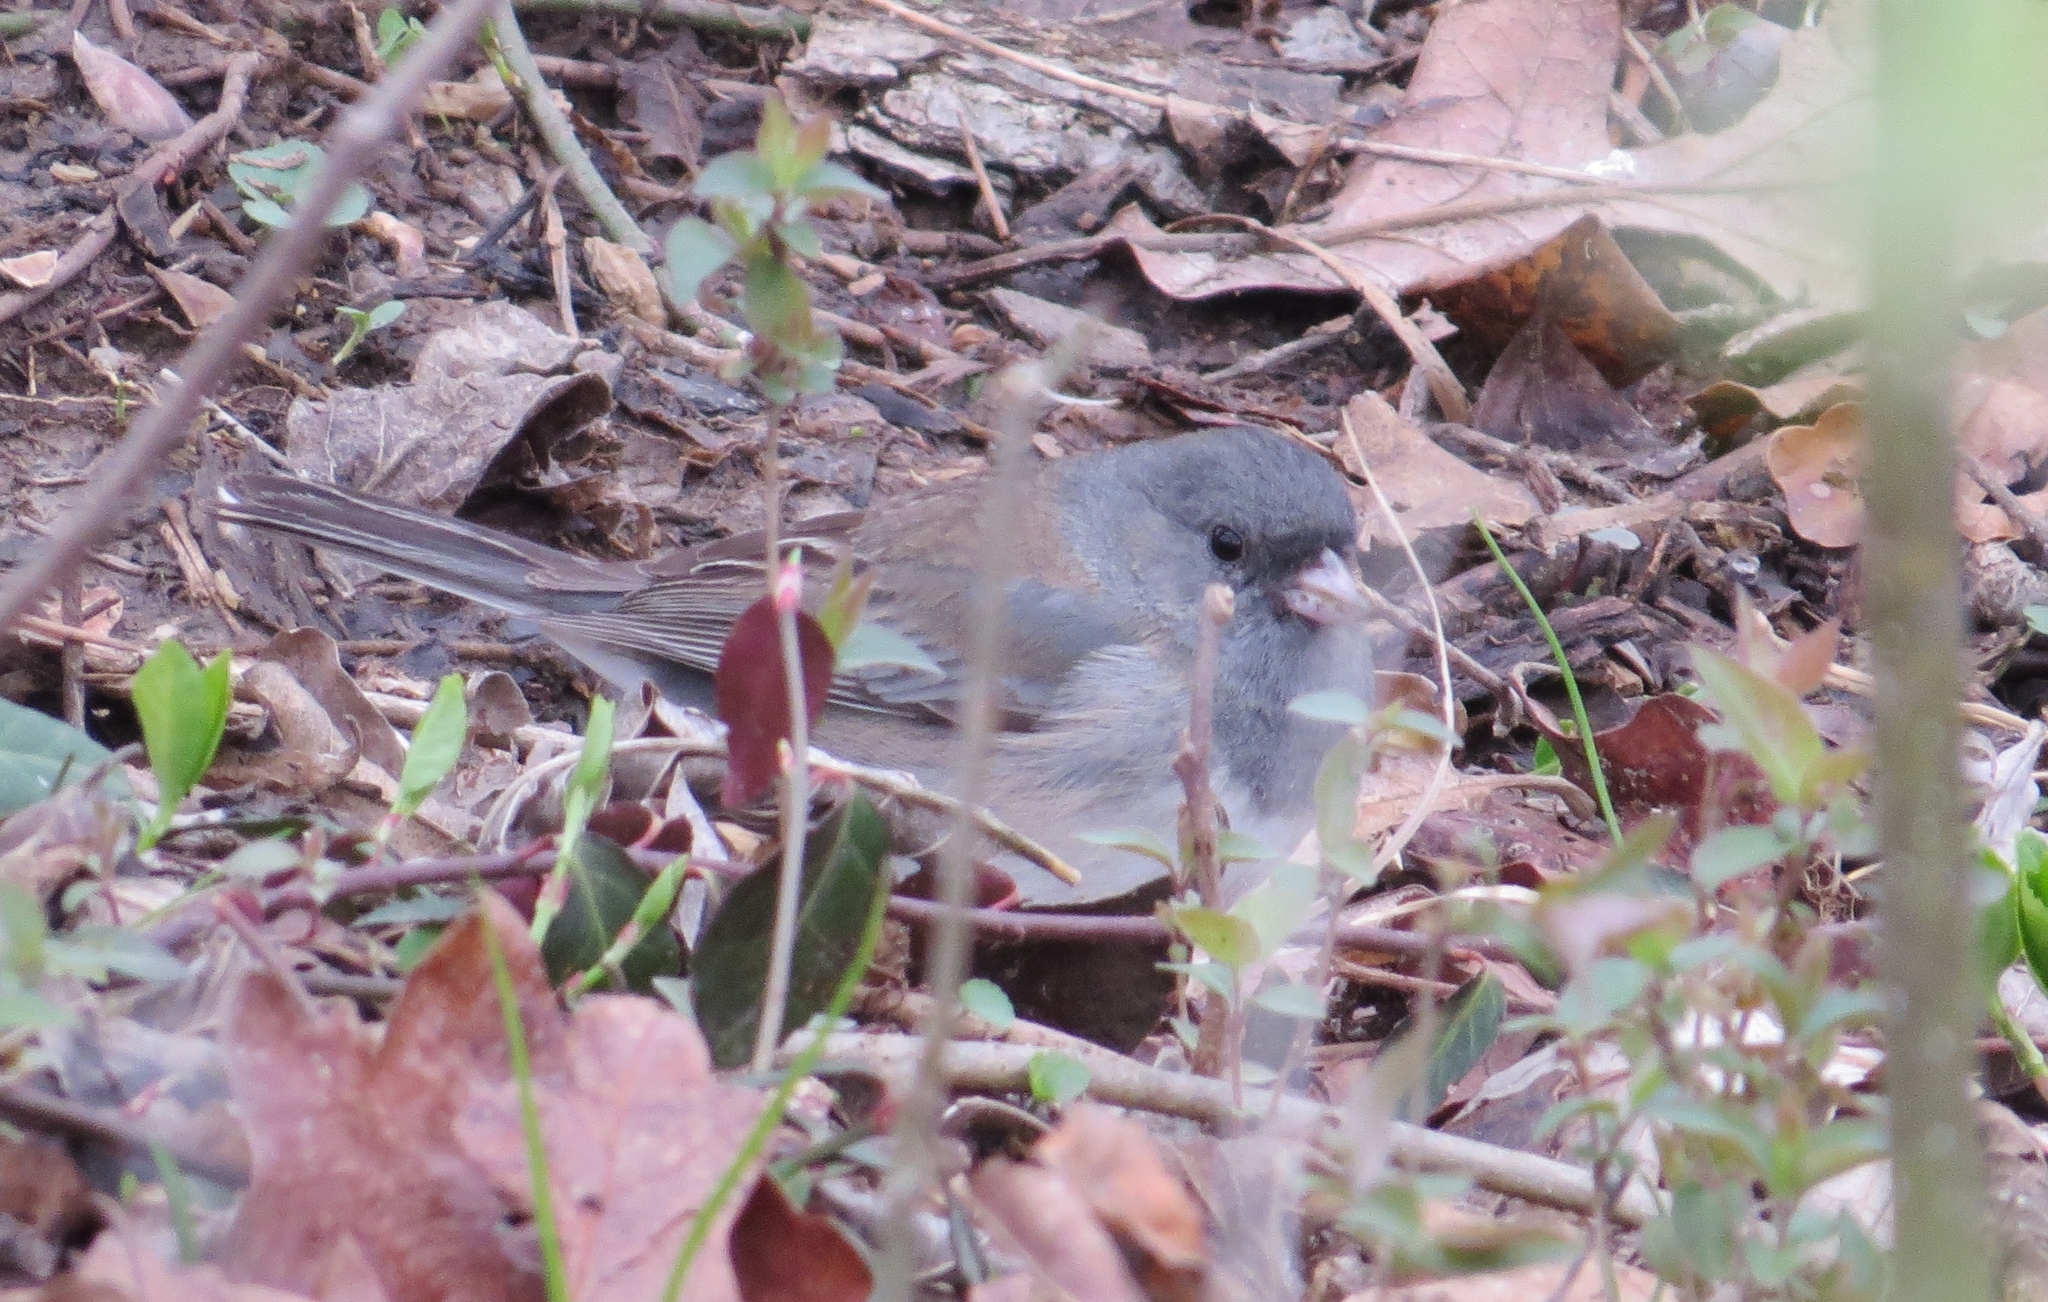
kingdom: Animalia
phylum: Chordata
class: Aves
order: Passeriformes
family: Passerellidae
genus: Junco
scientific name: Junco hyemalis
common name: Dark-eyed junco
